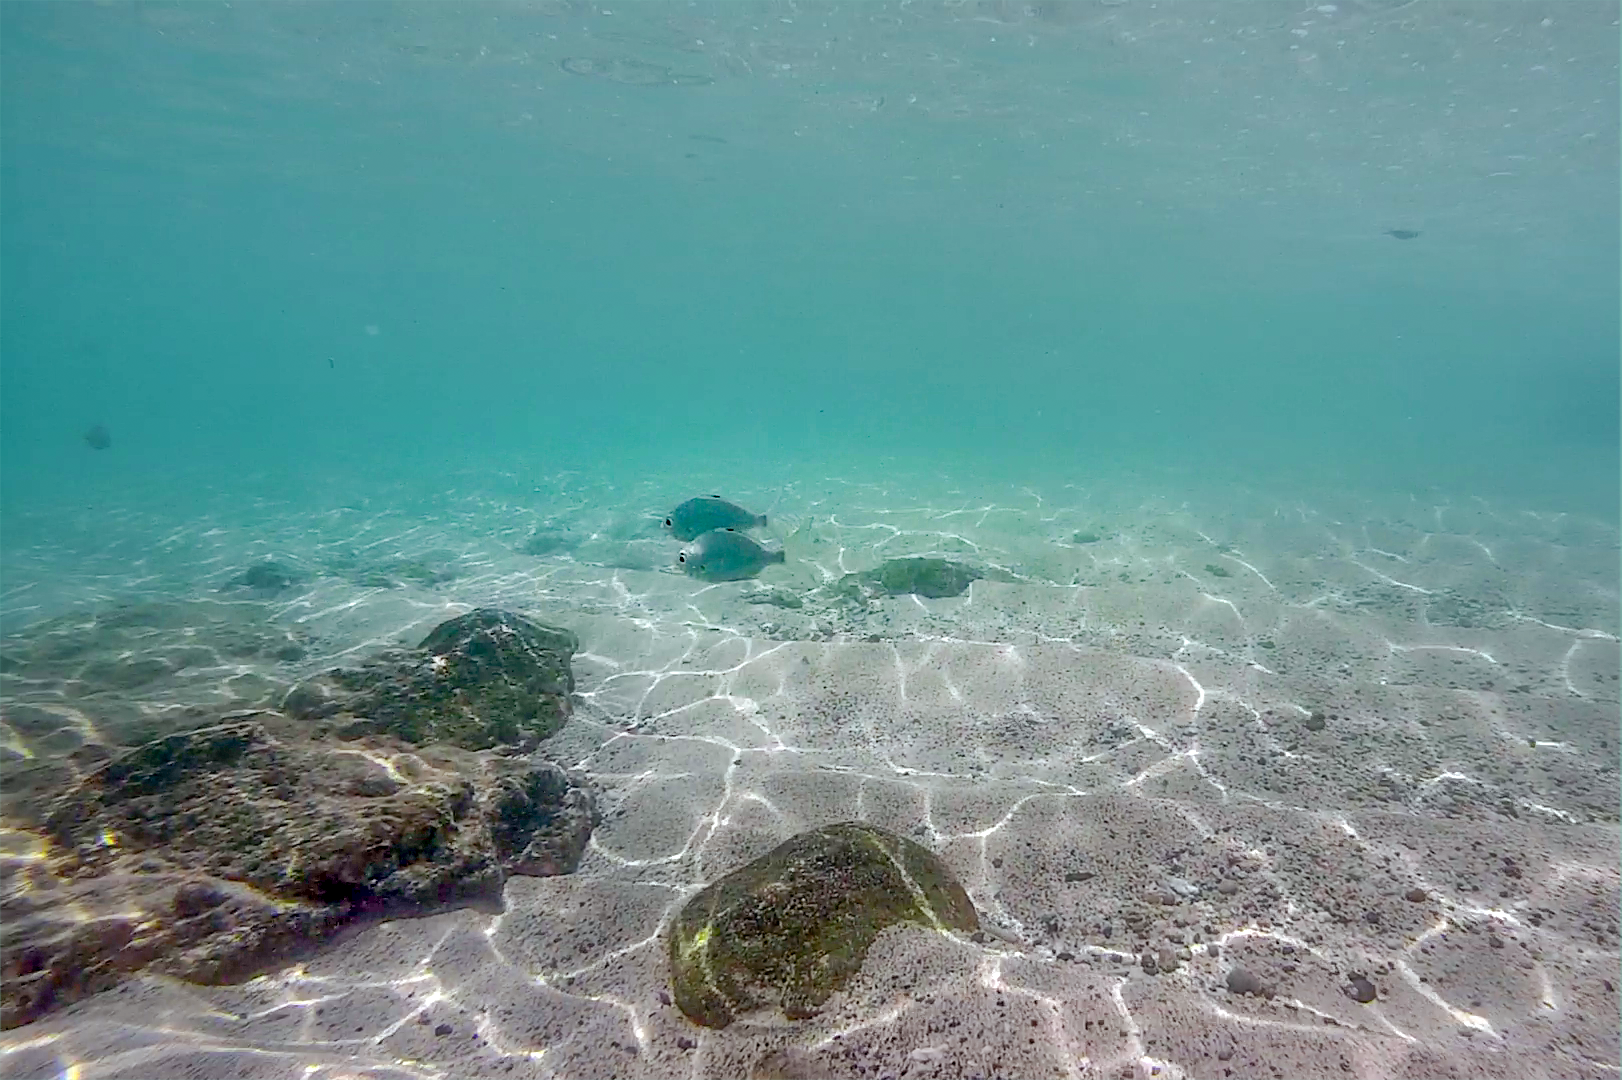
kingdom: Animalia
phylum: Chordata
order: Perciformes
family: Gerreidae
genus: Gerres
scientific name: Gerres oyena
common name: Common silver-biddy
